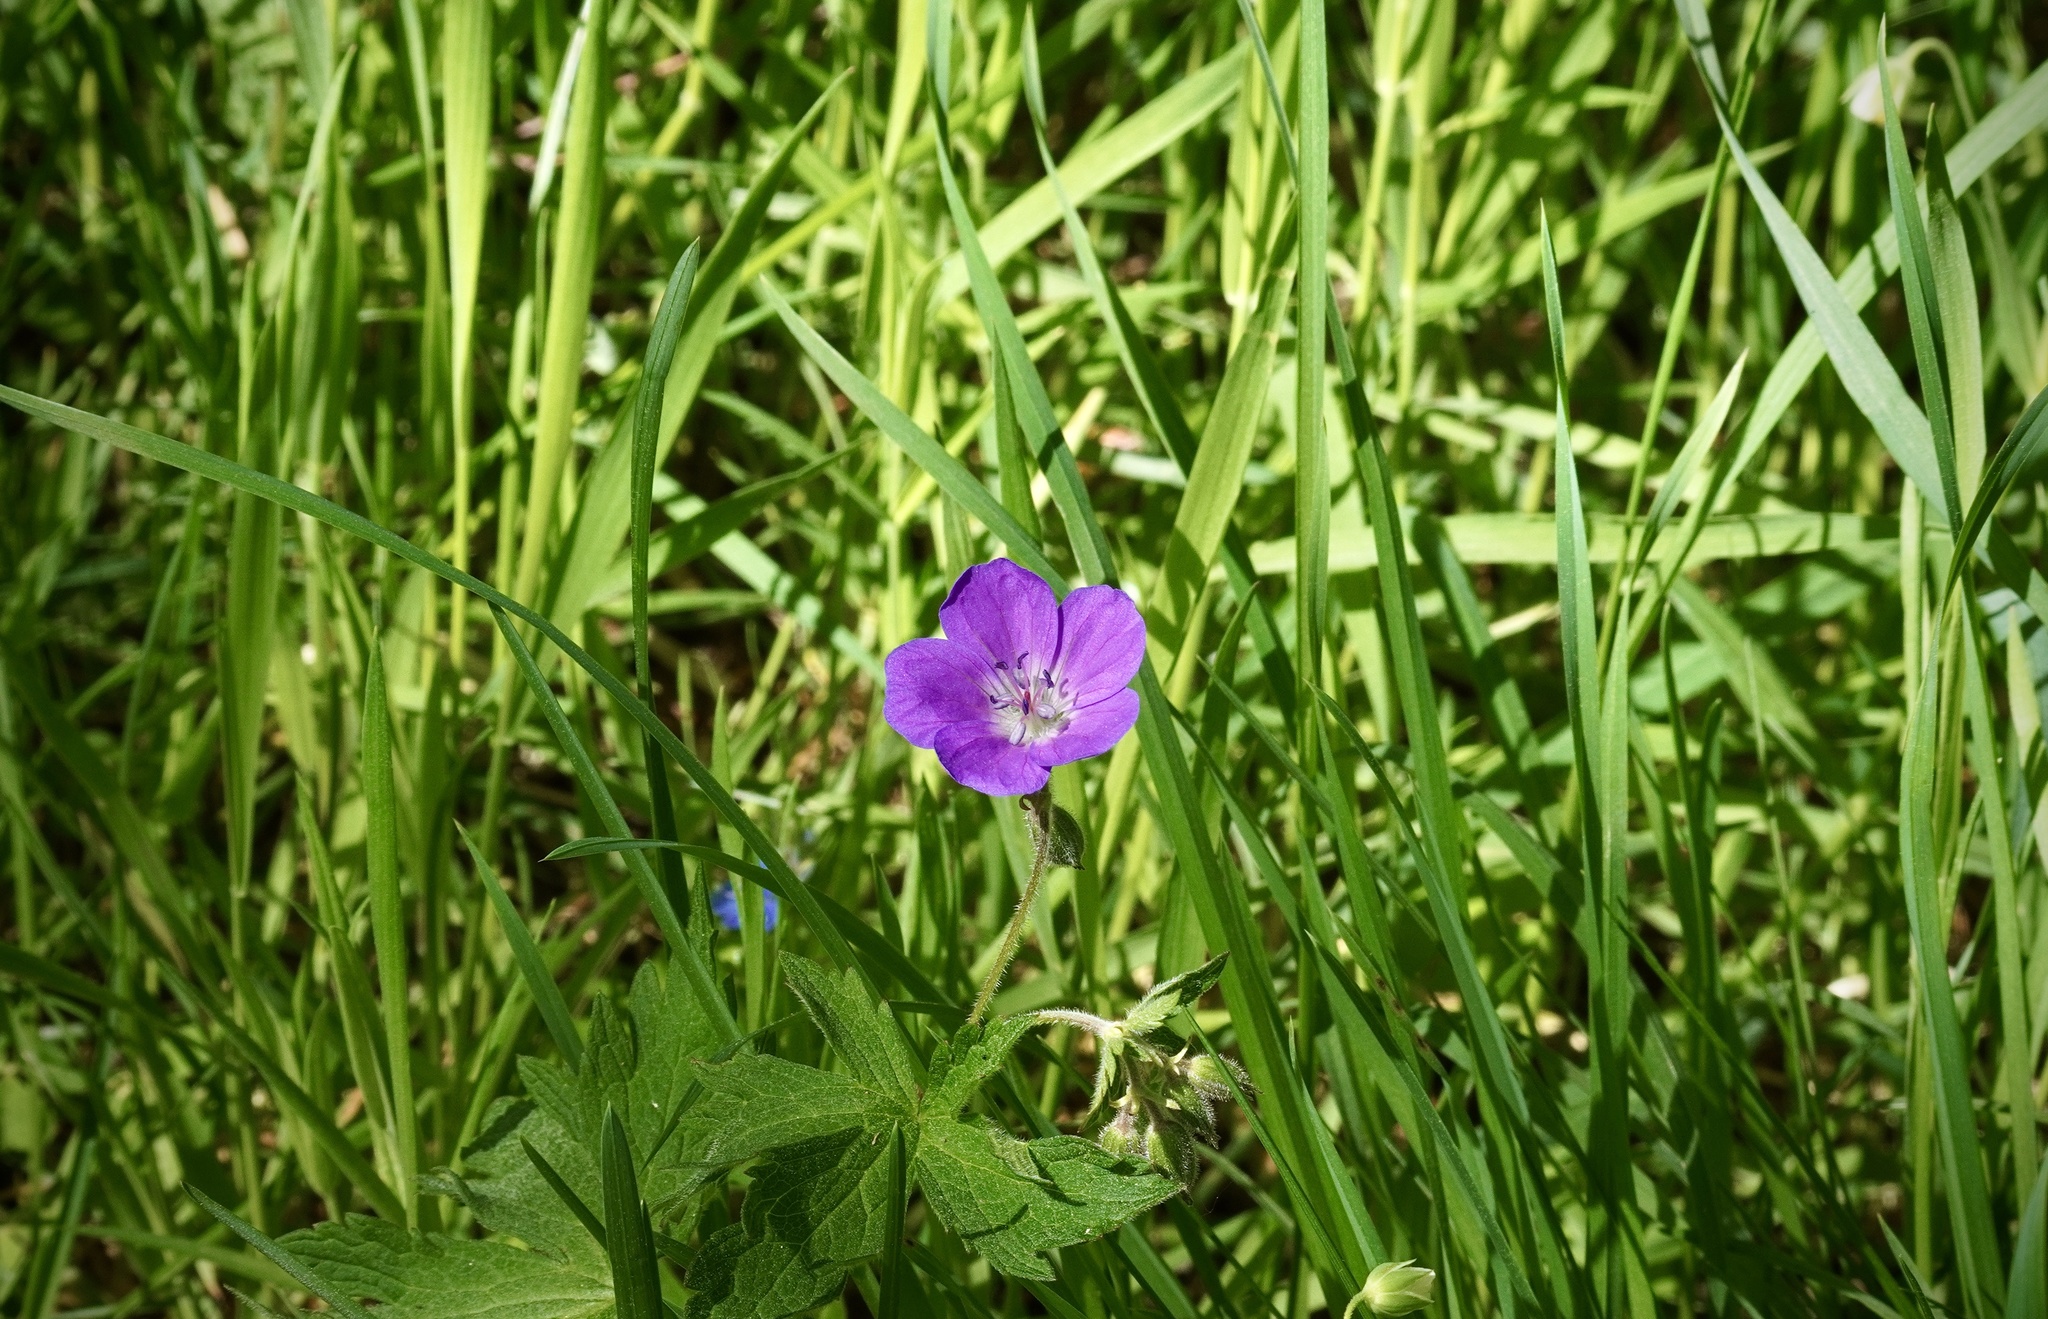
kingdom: Plantae
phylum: Tracheophyta
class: Magnoliopsida
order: Geraniales
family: Geraniaceae
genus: Geranium
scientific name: Geranium sylvaticum
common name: Wood crane's-bill
